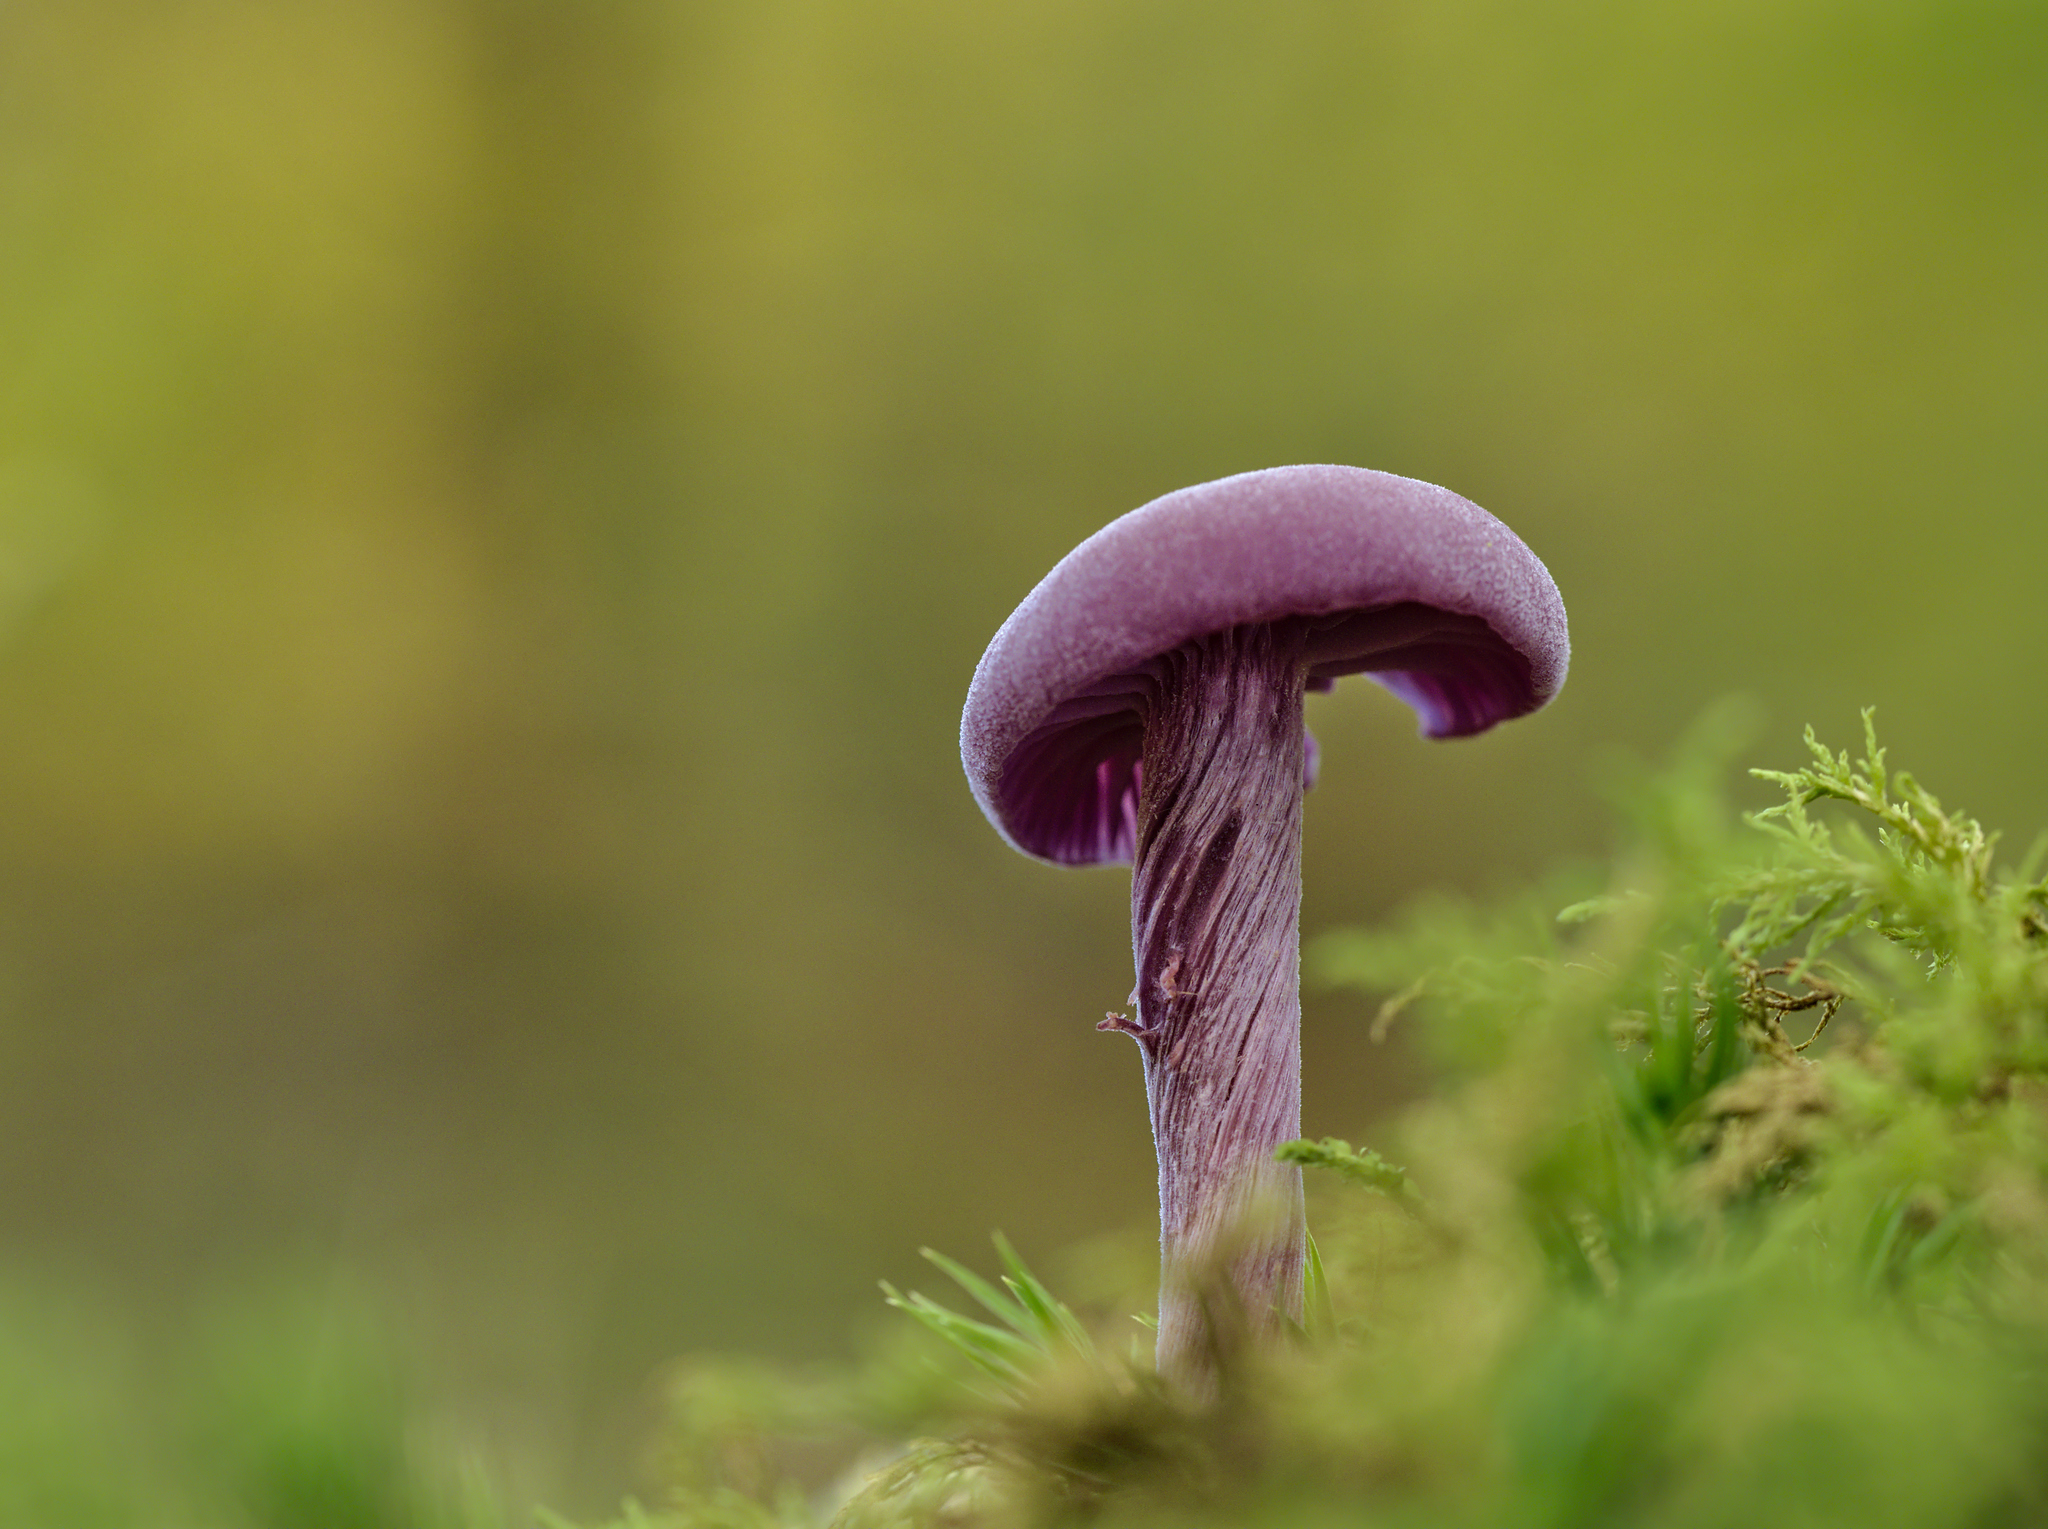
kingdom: Fungi
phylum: Basidiomycota
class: Agaricomycetes
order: Agaricales
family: Hydnangiaceae
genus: Laccaria
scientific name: Laccaria amethystina
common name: Amethyst deceiver
